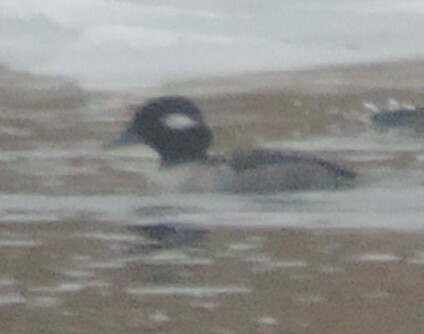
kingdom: Animalia
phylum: Chordata
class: Aves
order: Anseriformes
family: Anatidae
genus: Bucephala
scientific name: Bucephala albeola
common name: Bufflehead
